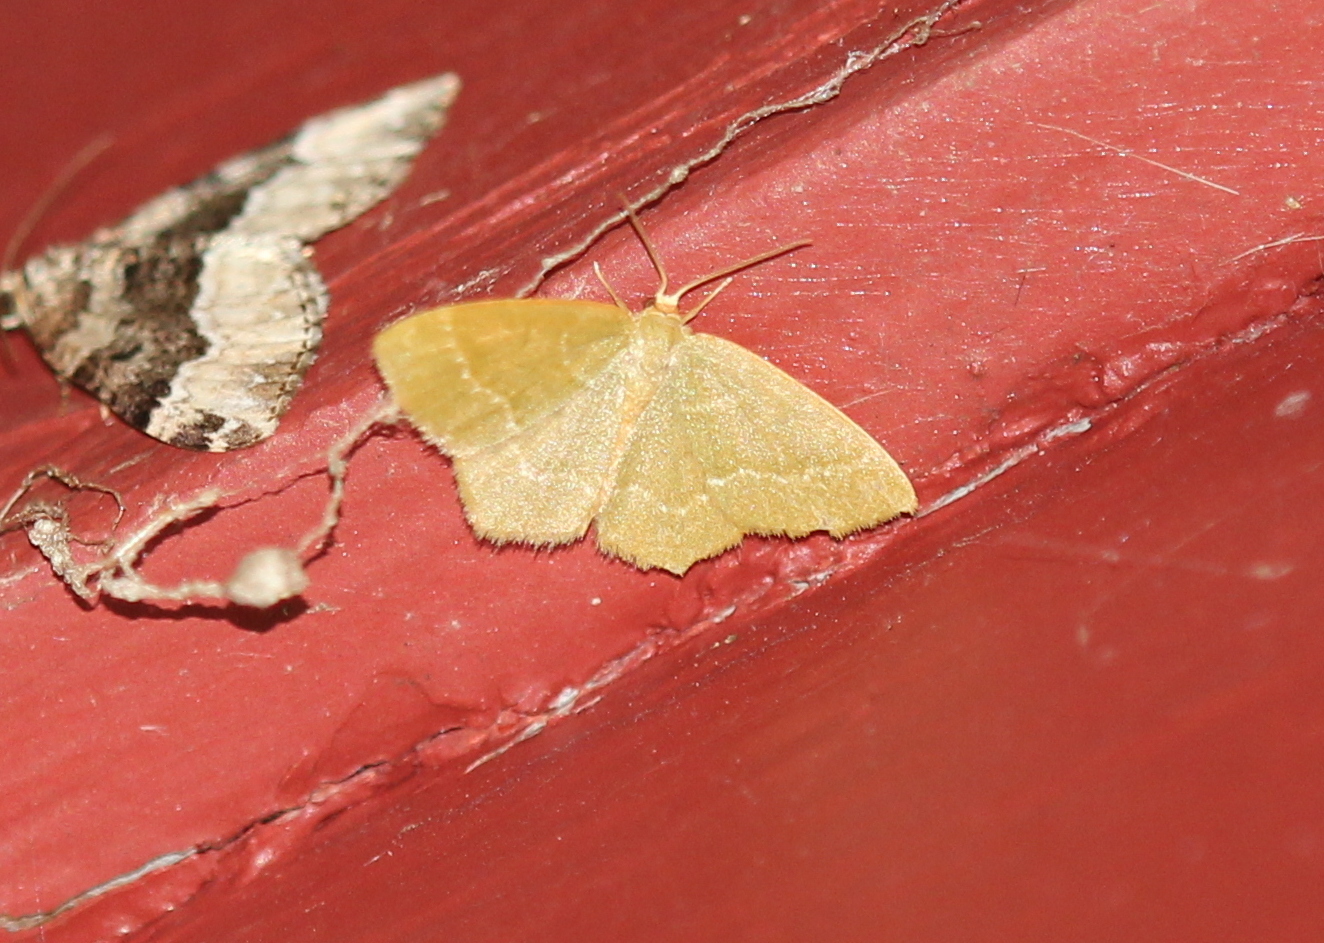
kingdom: Animalia
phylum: Arthropoda
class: Insecta
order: Lepidoptera
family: Geometridae
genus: Thalera
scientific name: Thalera pistasciaria
